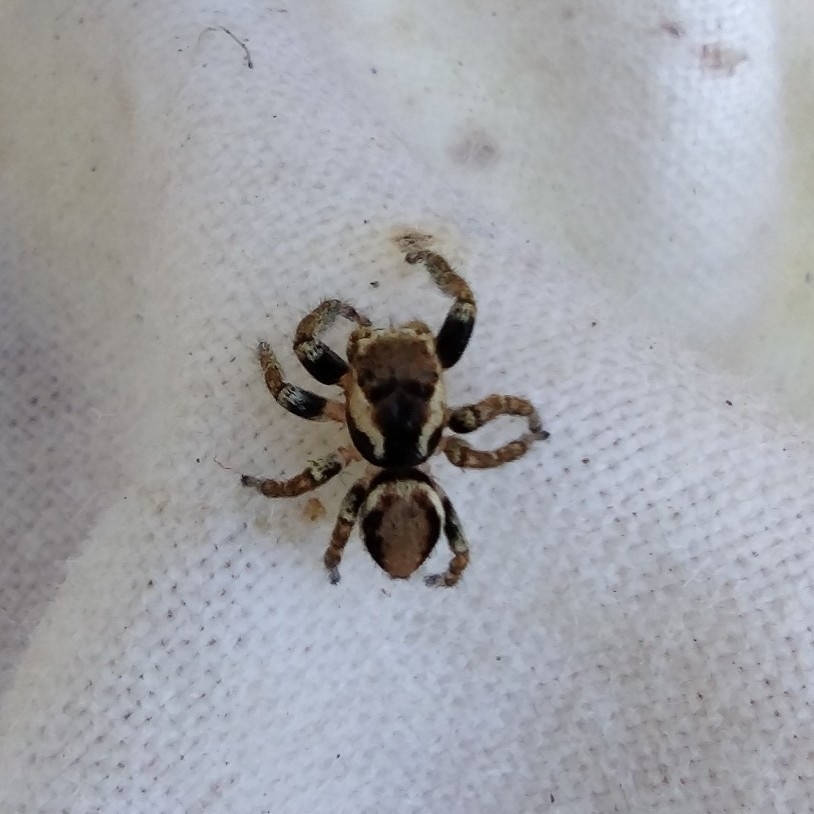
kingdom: Animalia
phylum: Arthropoda
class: Arachnida
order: Araneae
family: Salticidae
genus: Evarcha
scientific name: Evarcha falcata
